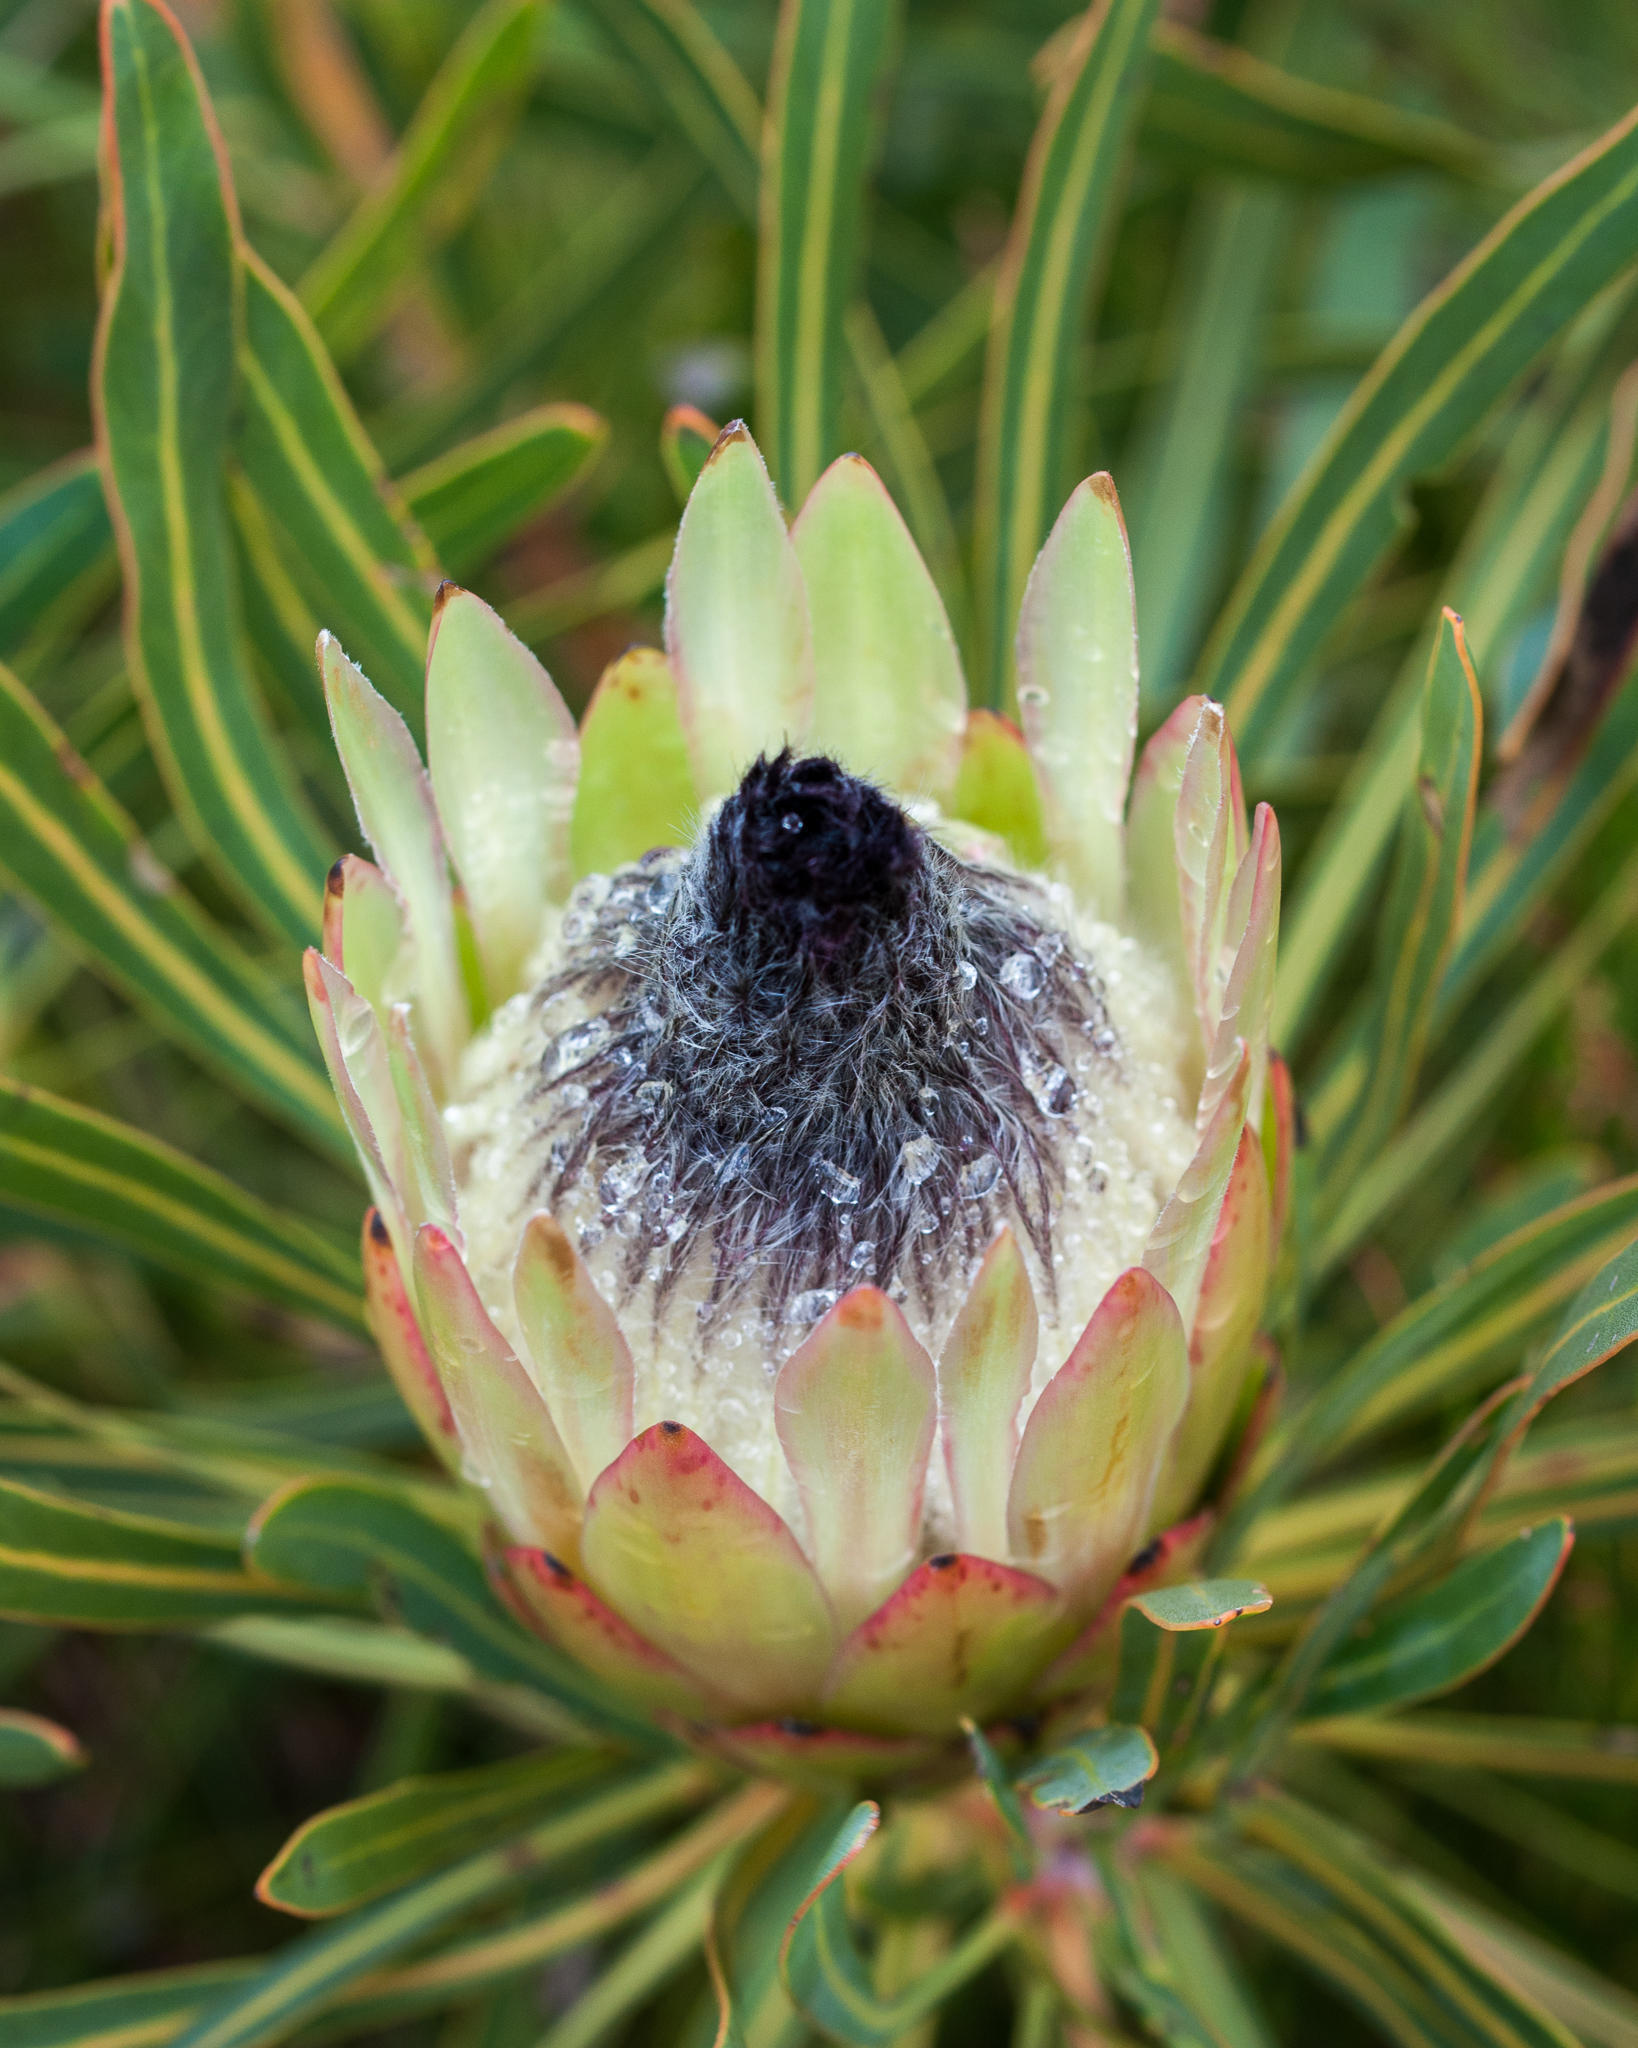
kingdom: Plantae
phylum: Tracheophyta
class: Magnoliopsida
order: Proteales
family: Proteaceae
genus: Protea
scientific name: Protea longifolia
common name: Long-leaf sugarbush
